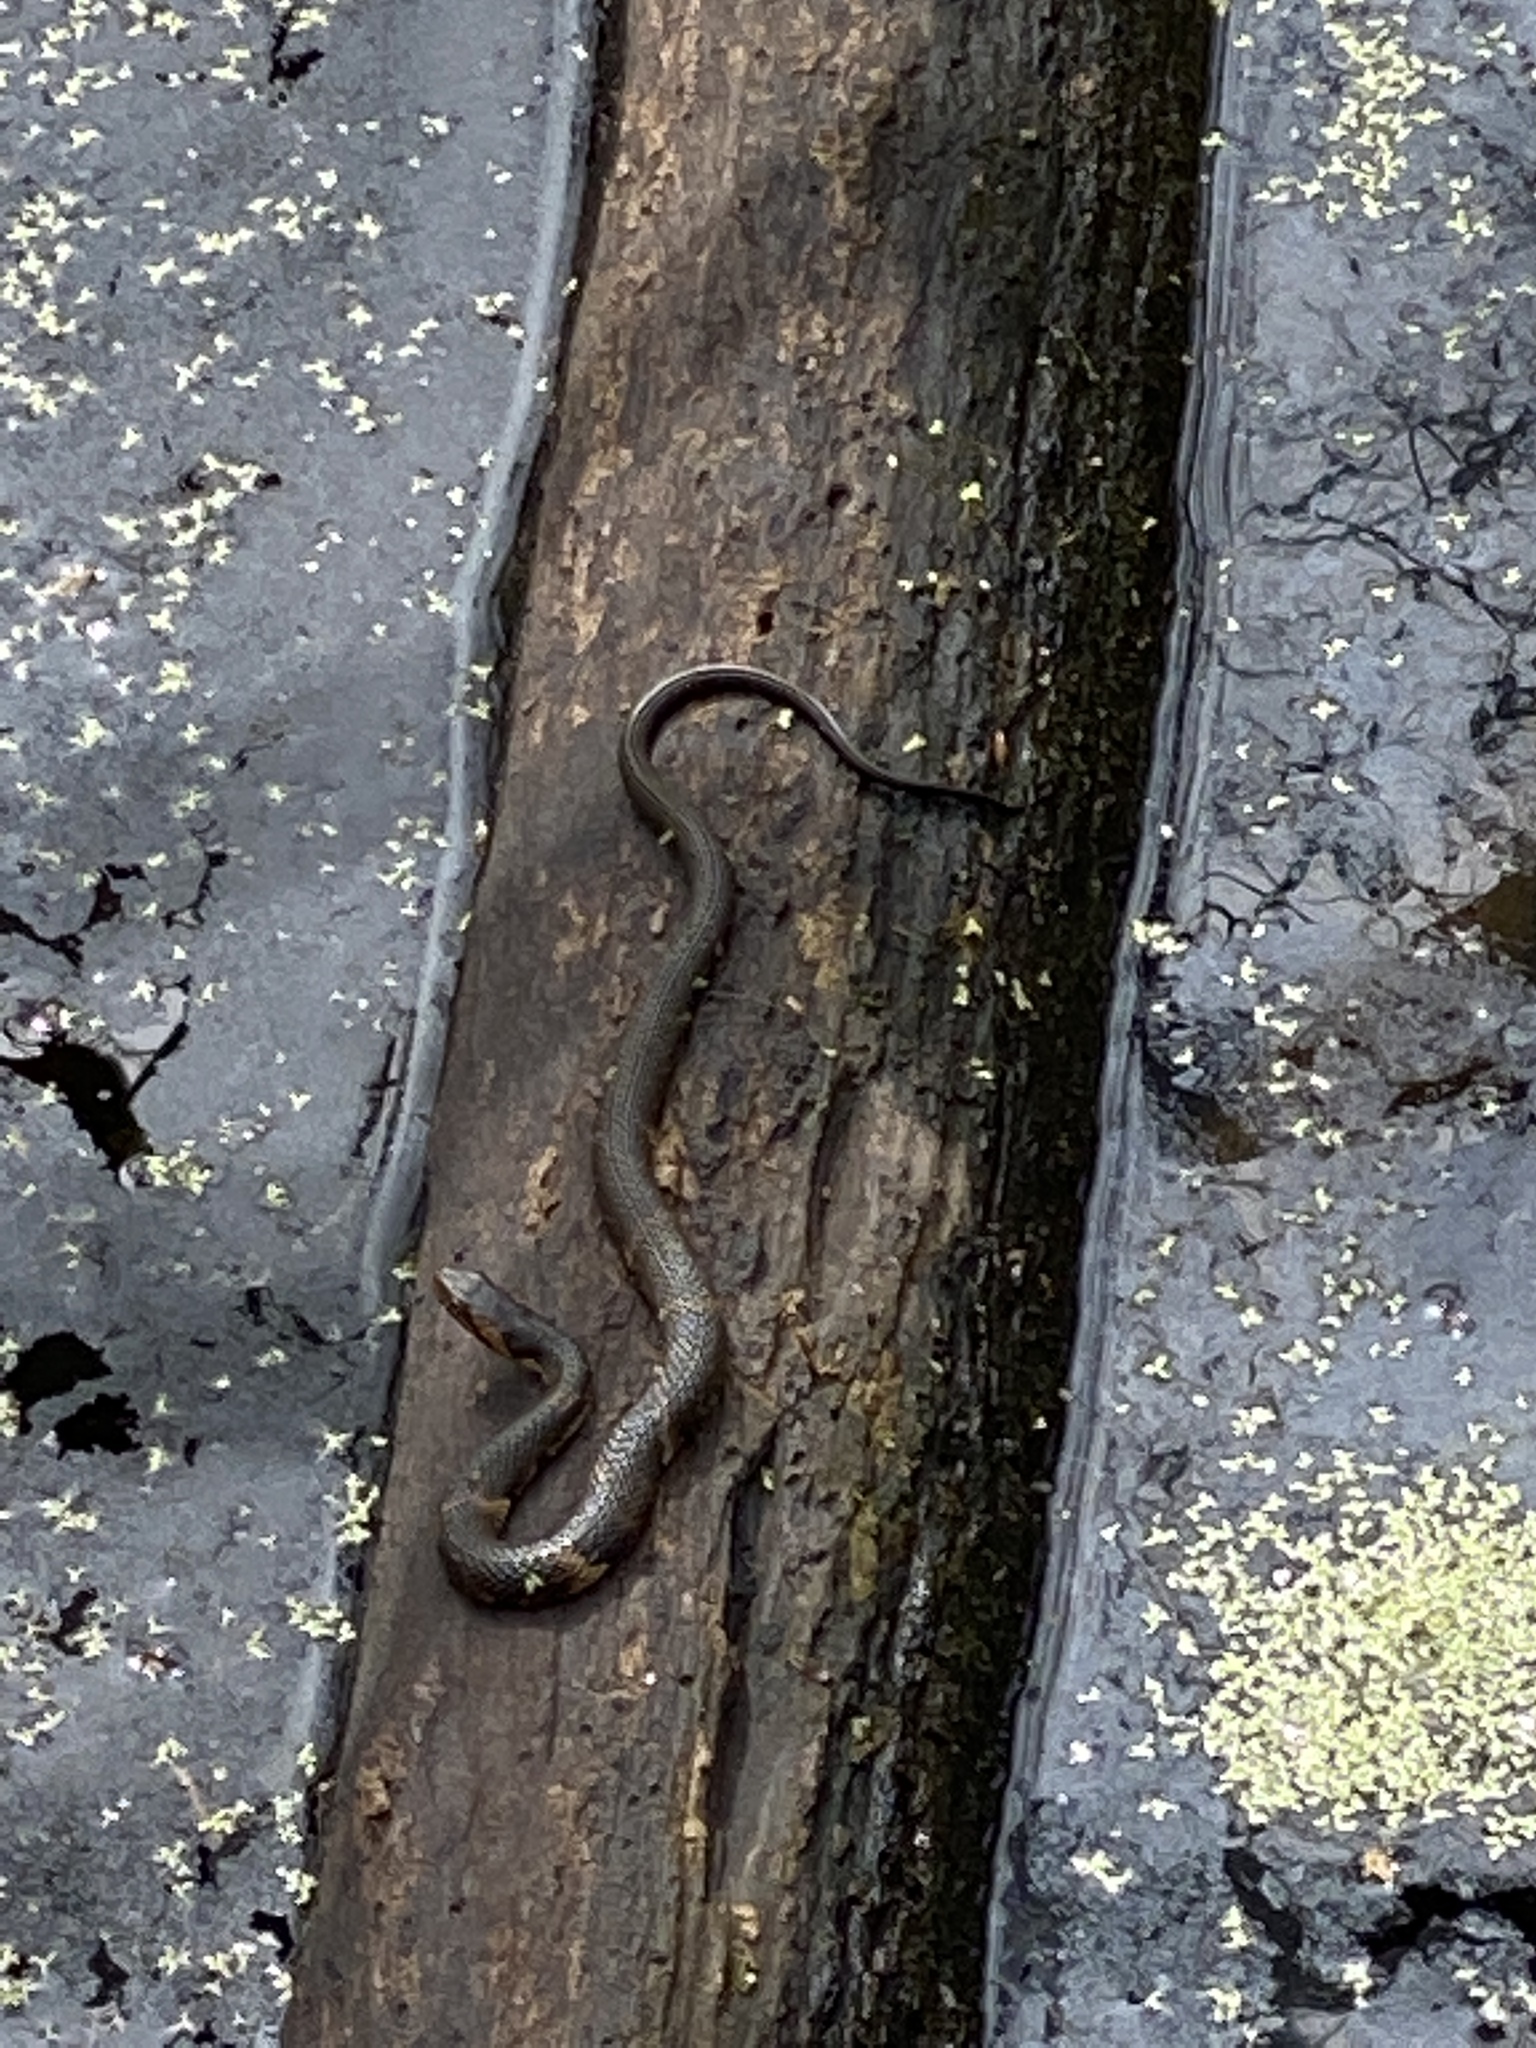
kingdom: Animalia
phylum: Chordata
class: Squamata
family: Colubridae
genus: Nerodia
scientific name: Nerodia fasciata
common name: Southern water snake
